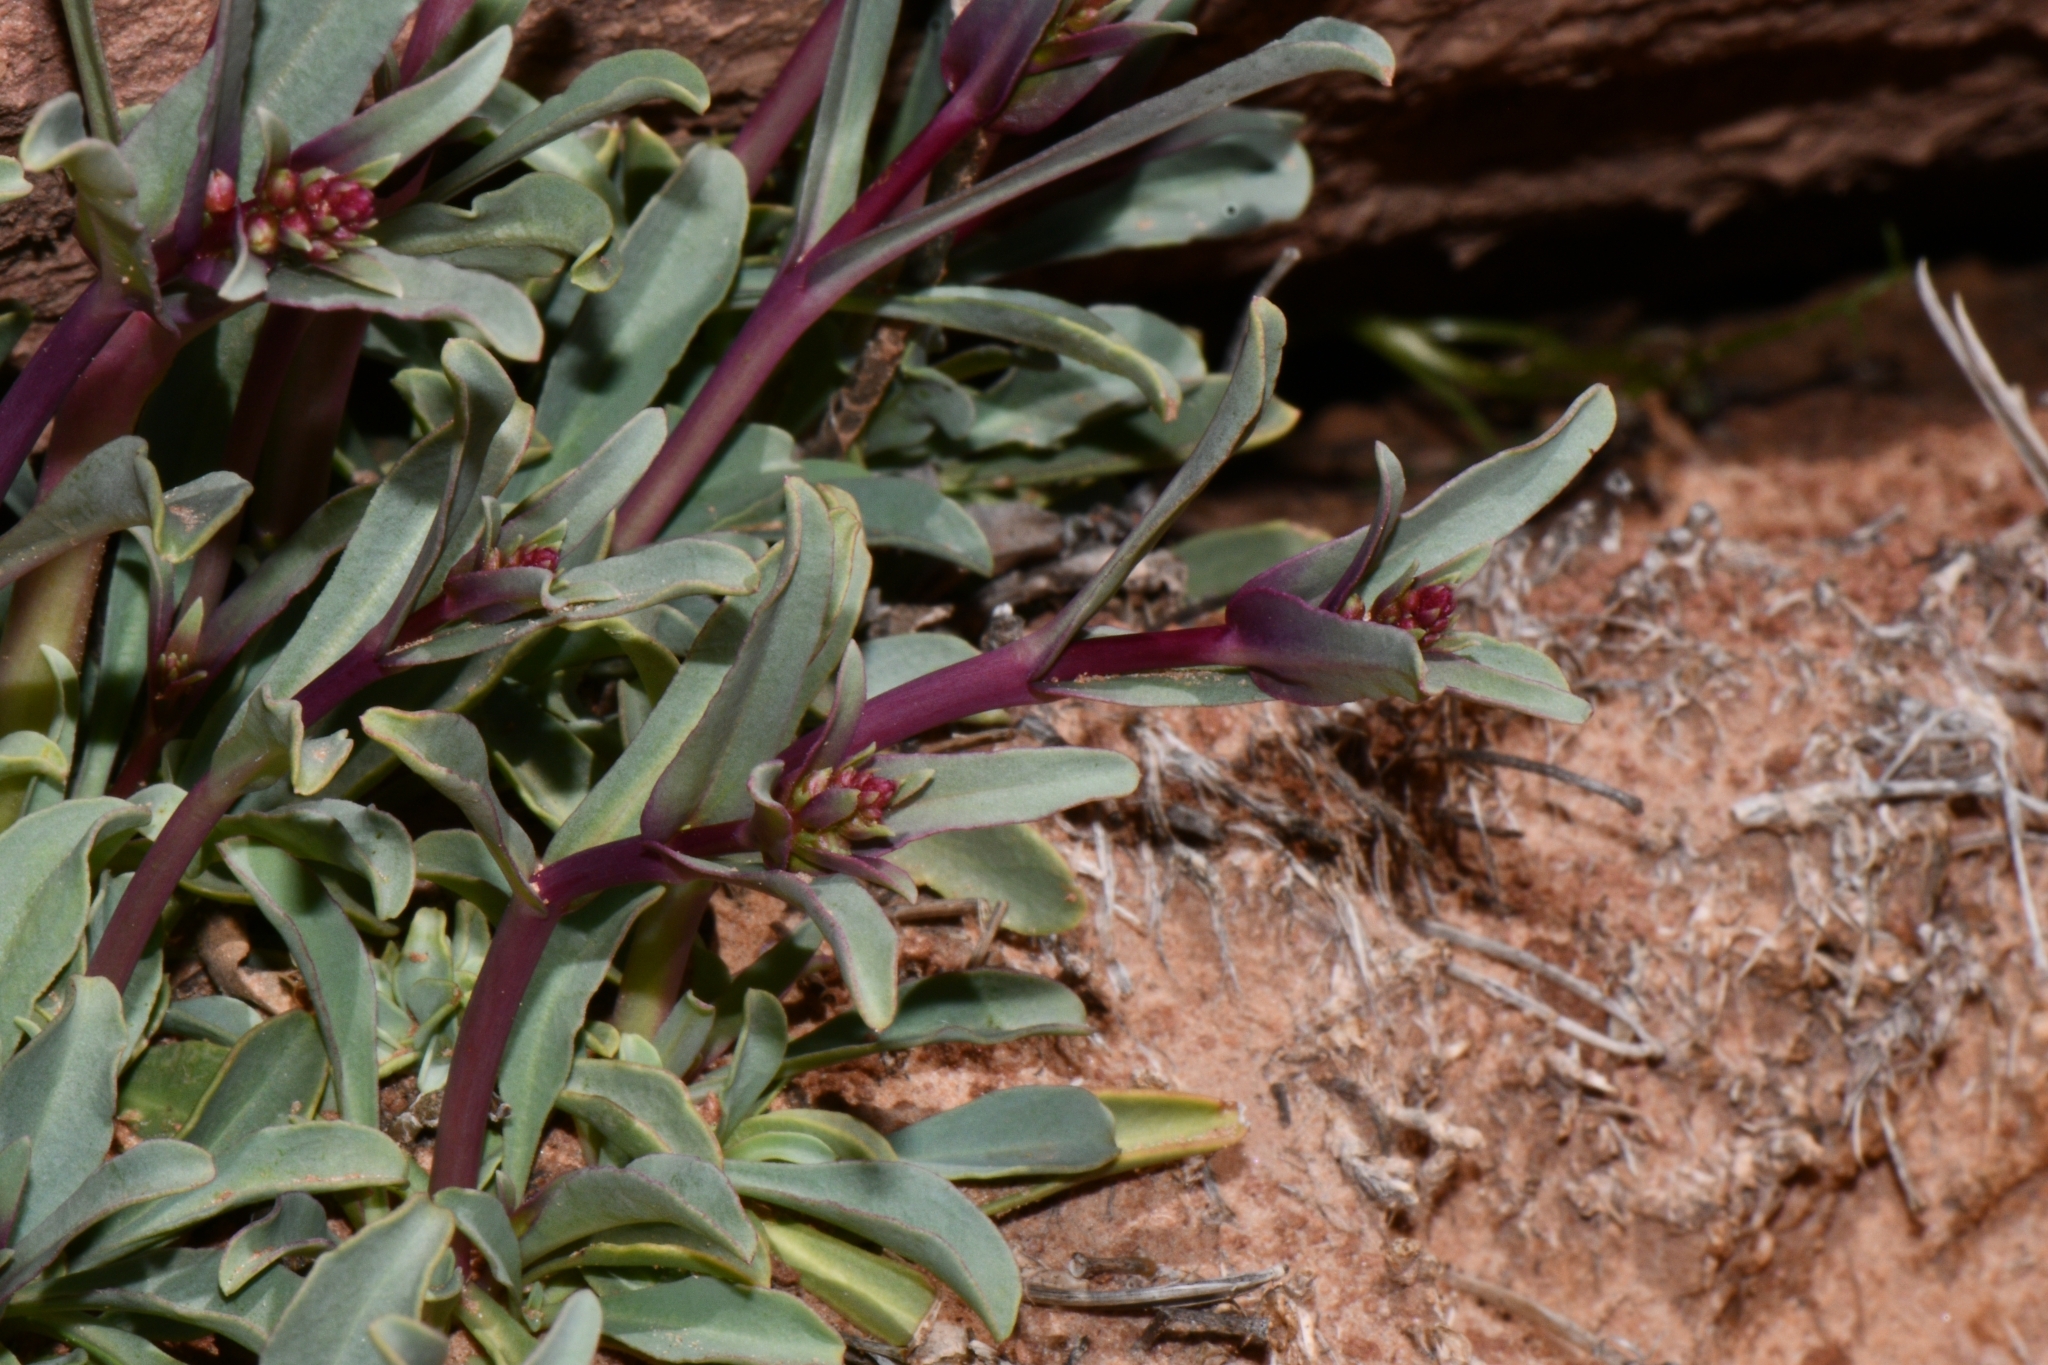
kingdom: Plantae
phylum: Tracheophyta
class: Magnoliopsida
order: Lamiales
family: Plantaginaceae
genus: Penstemon
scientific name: Penstemon utahensis
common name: Utah penstemon
